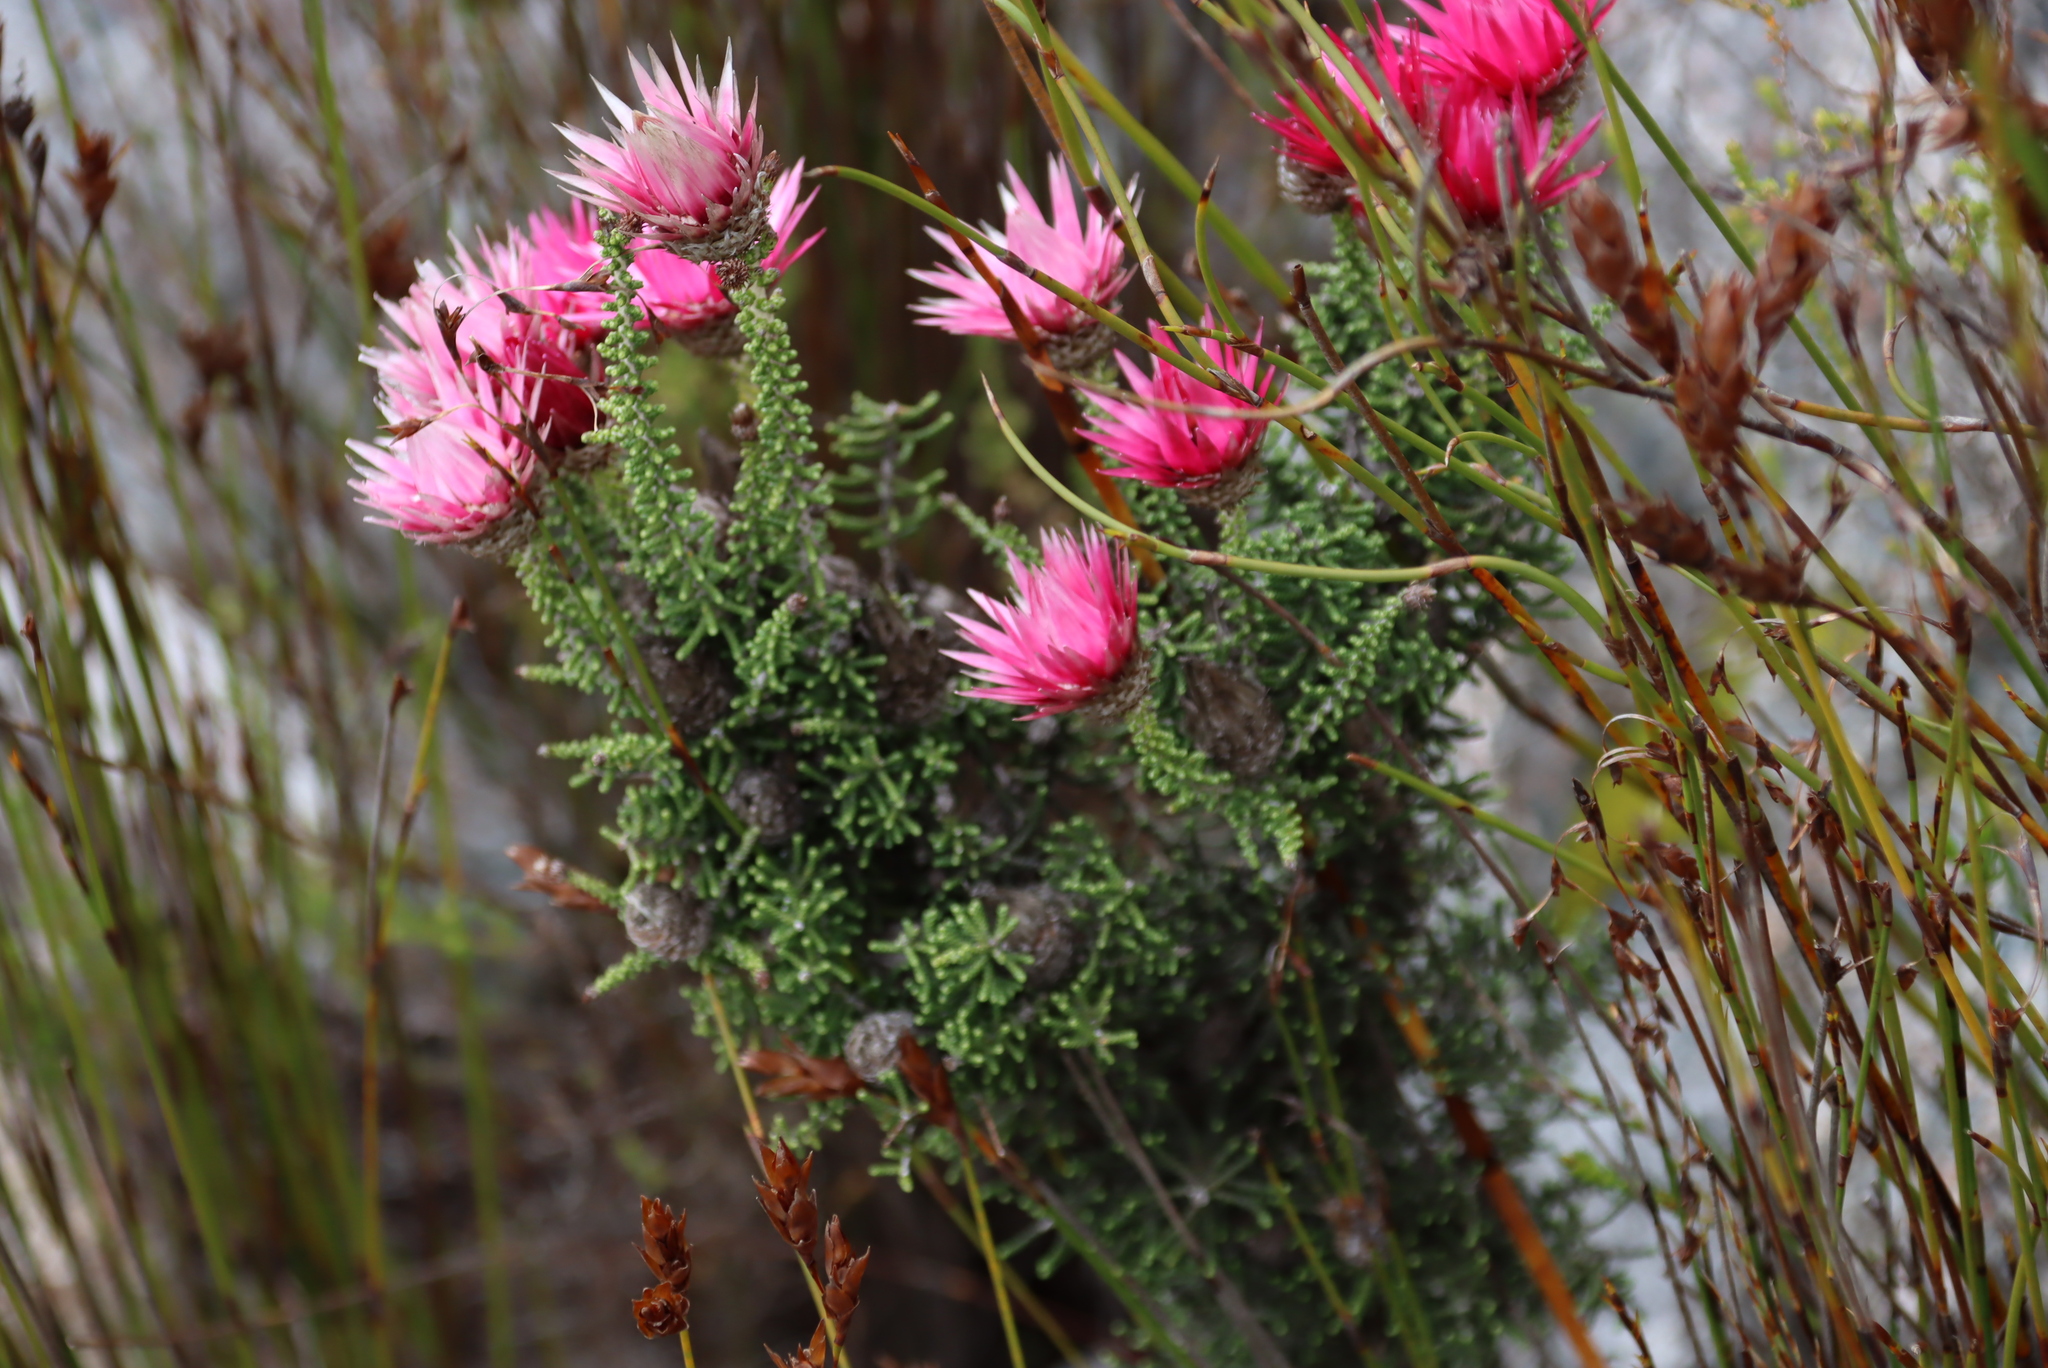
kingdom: Plantae
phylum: Tracheophyta
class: Magnoliopsida
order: Asterales
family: Asteraceae
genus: Phaenocoma
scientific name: Phaenocoma prolifera
